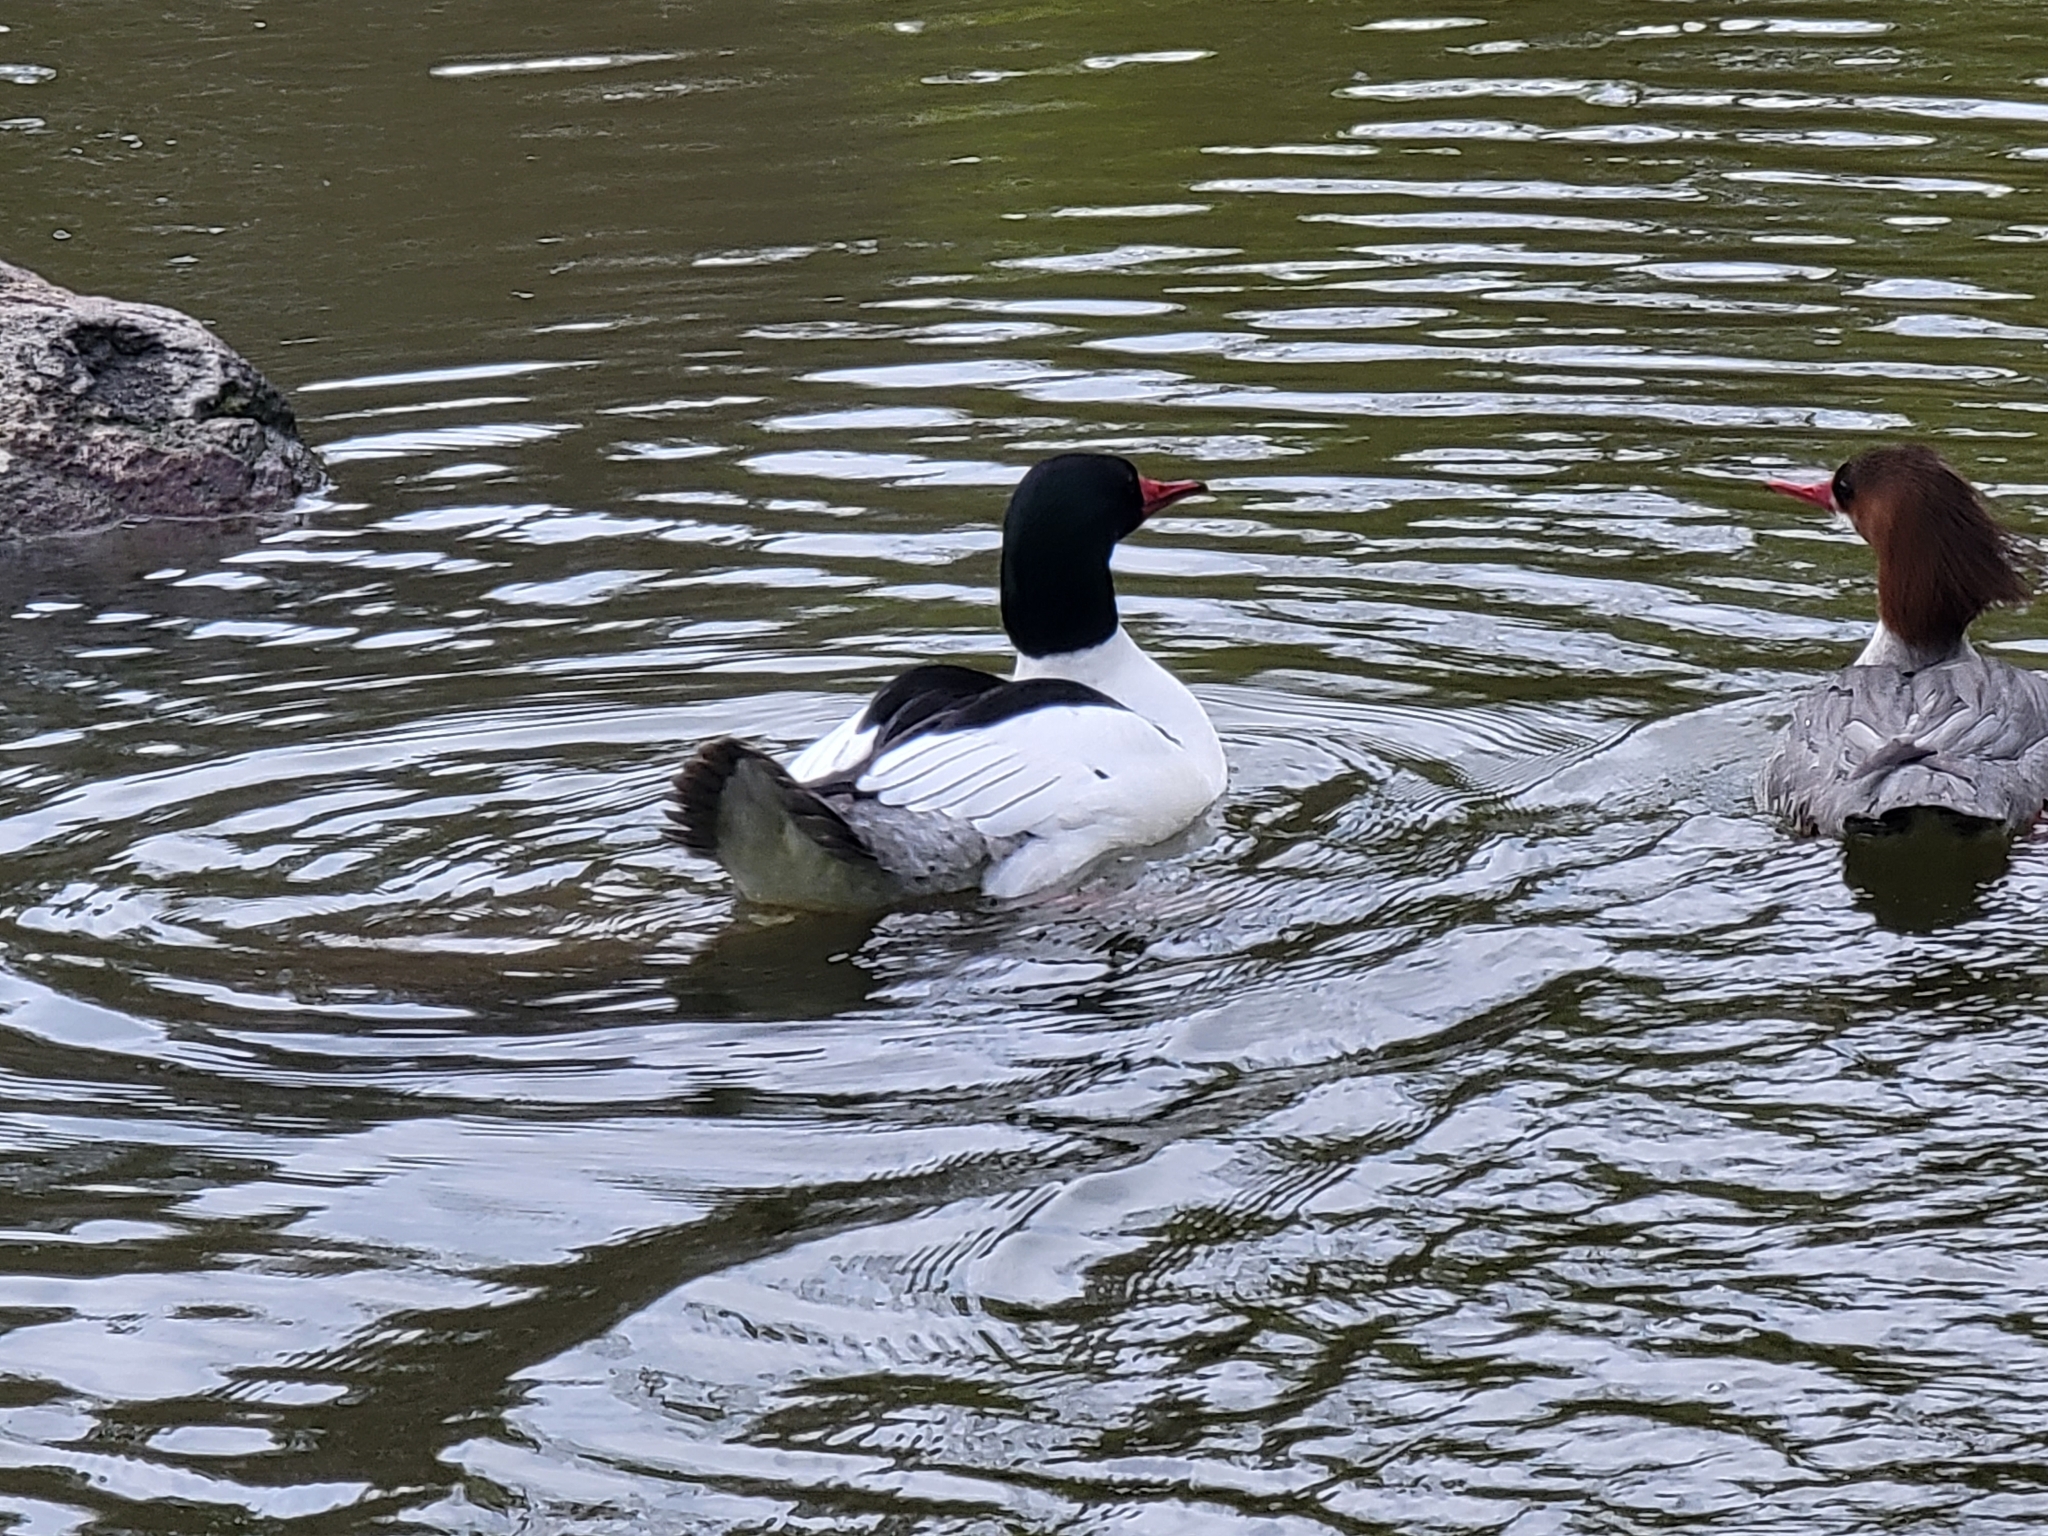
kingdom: Animalia
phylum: Chordata
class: Aves
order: Anseriformes
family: Anatidae
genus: Mergus
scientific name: Mergus merganser
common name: Common merganser
